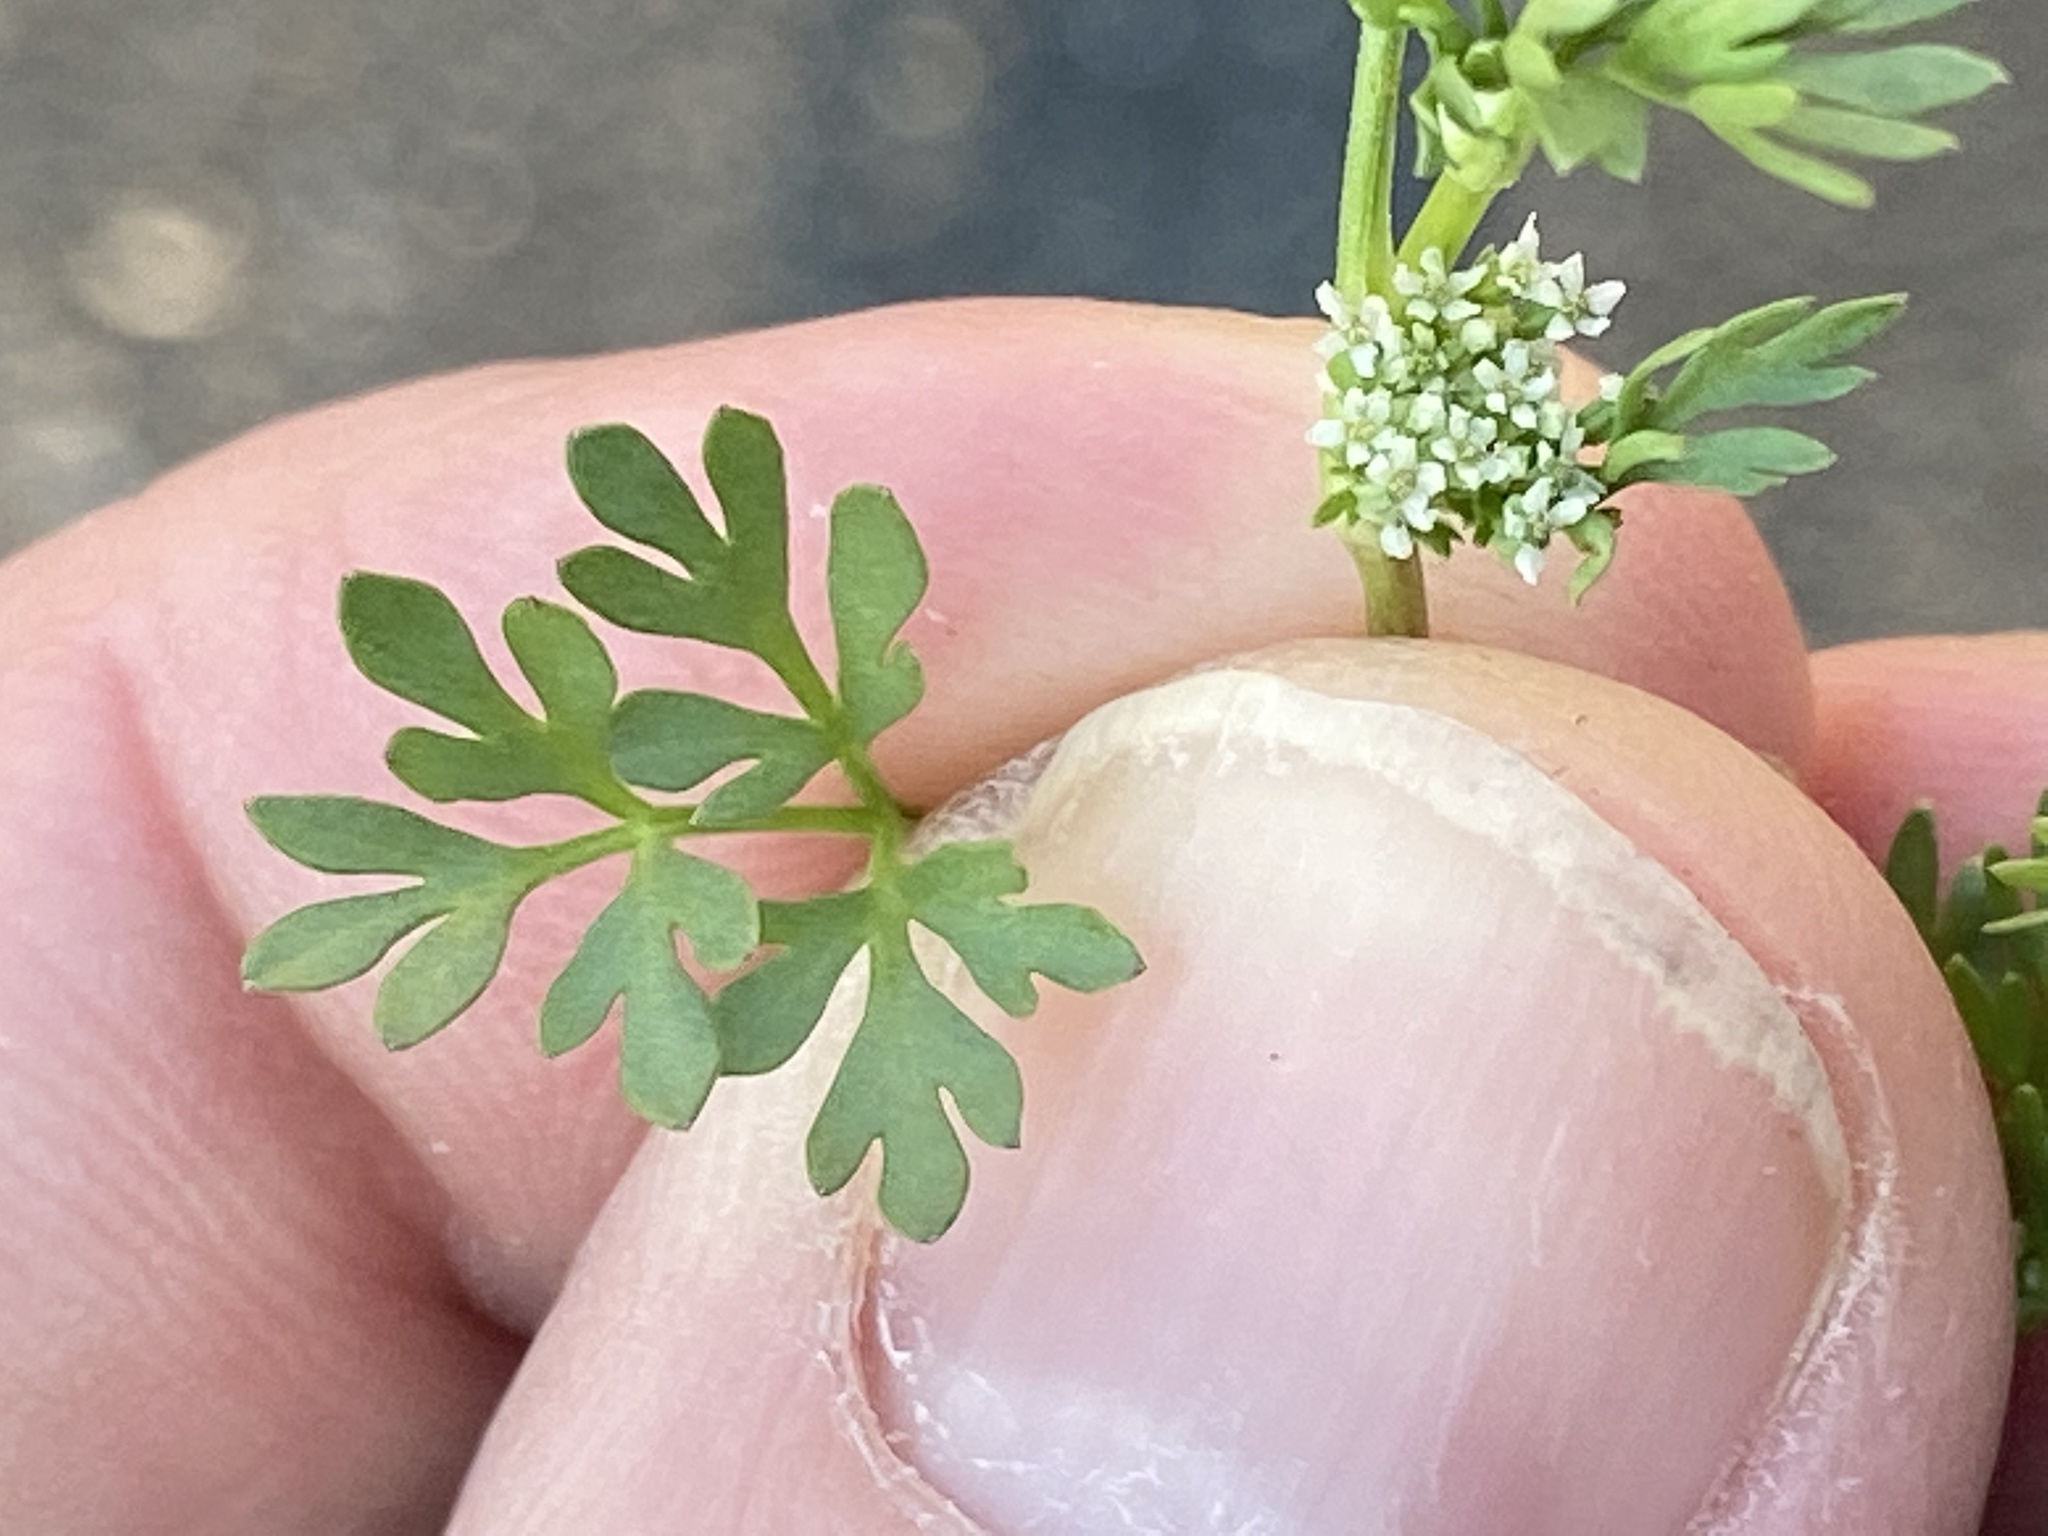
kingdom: Plantae
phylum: Tracheophyta
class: Magnoliopsida
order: Apiales
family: Apiaceae
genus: Ammoselinum
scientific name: Ammoselinum butleri
